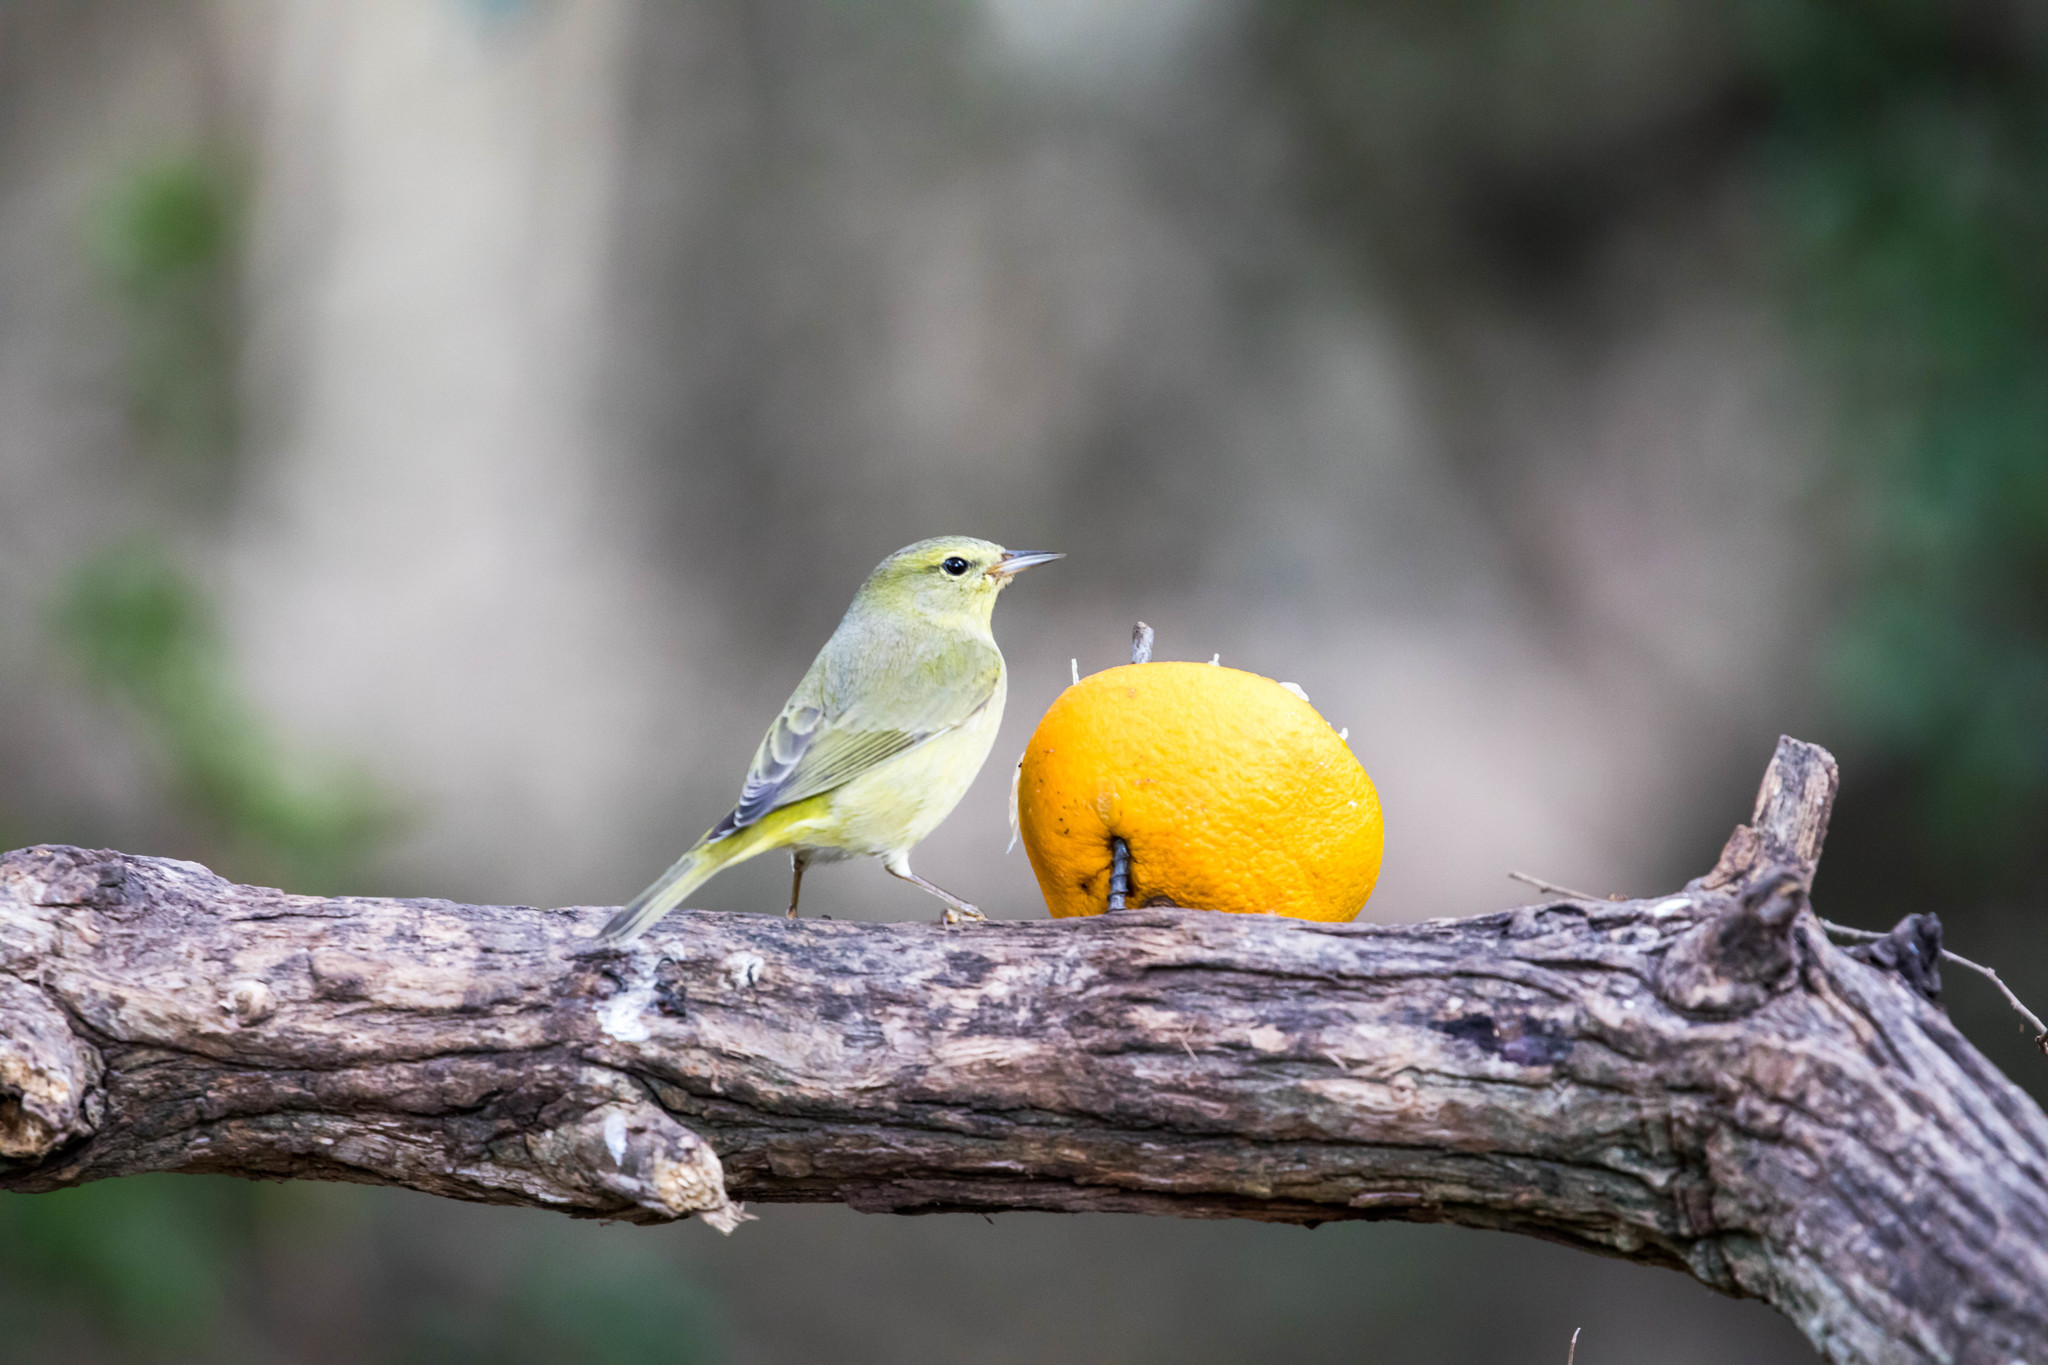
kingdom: Animalia
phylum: Chordata
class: Aves
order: Passeriformes
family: Parulidae
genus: Leiothlypis
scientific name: Leiothlypis celata
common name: Orange-crowned warbler
